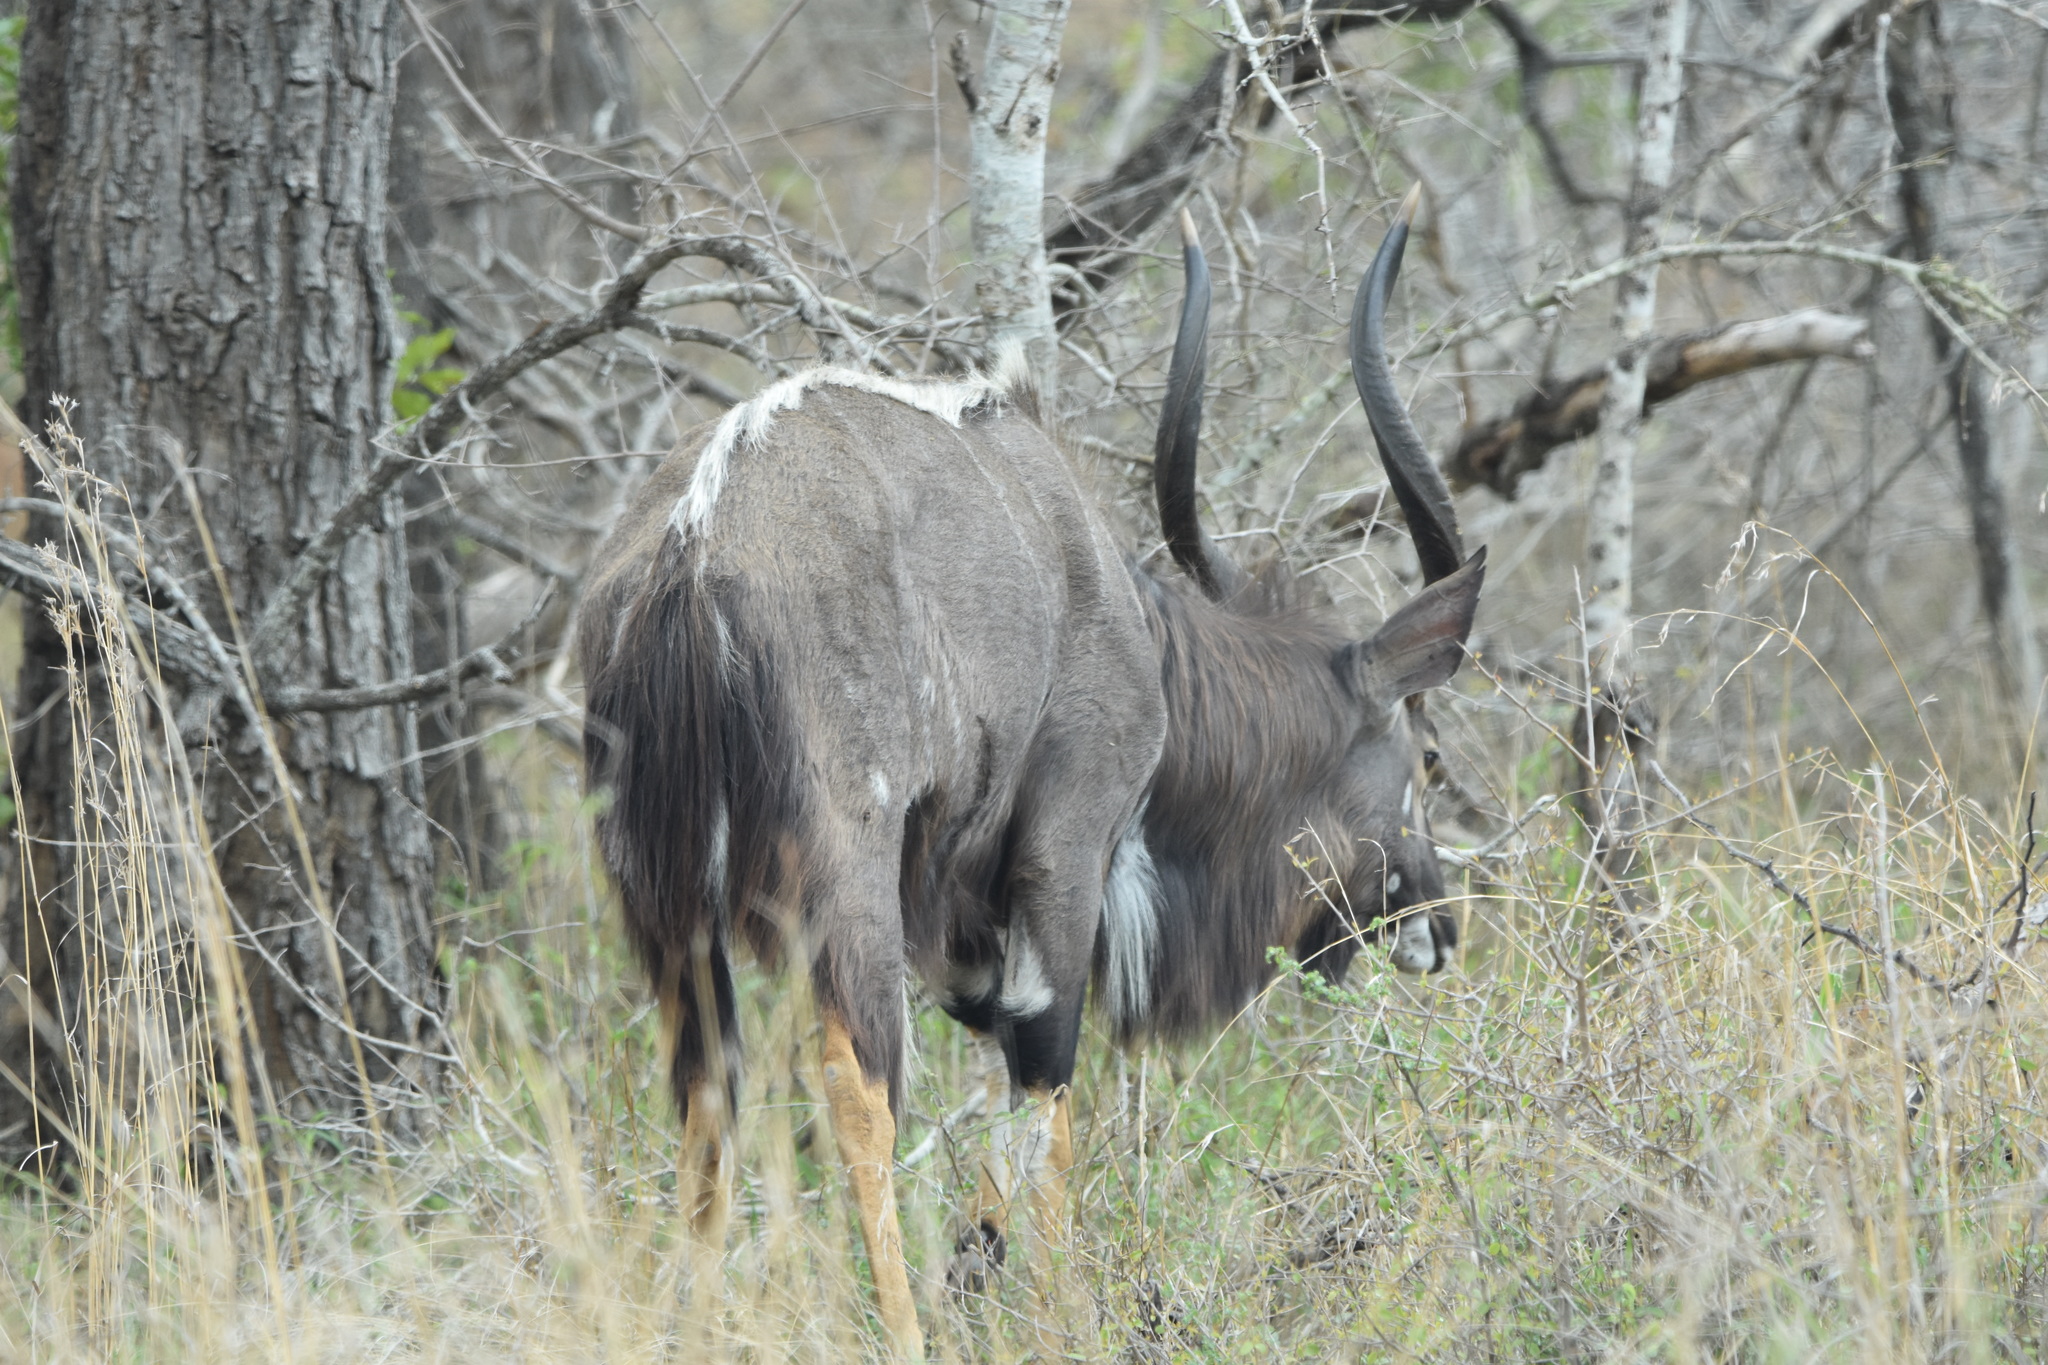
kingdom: Animalia
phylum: Chordata
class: Mammalia
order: Artiodactyla
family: Bovidae
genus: Tragelaphus
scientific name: Tragelaphus angasii
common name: Nyala
